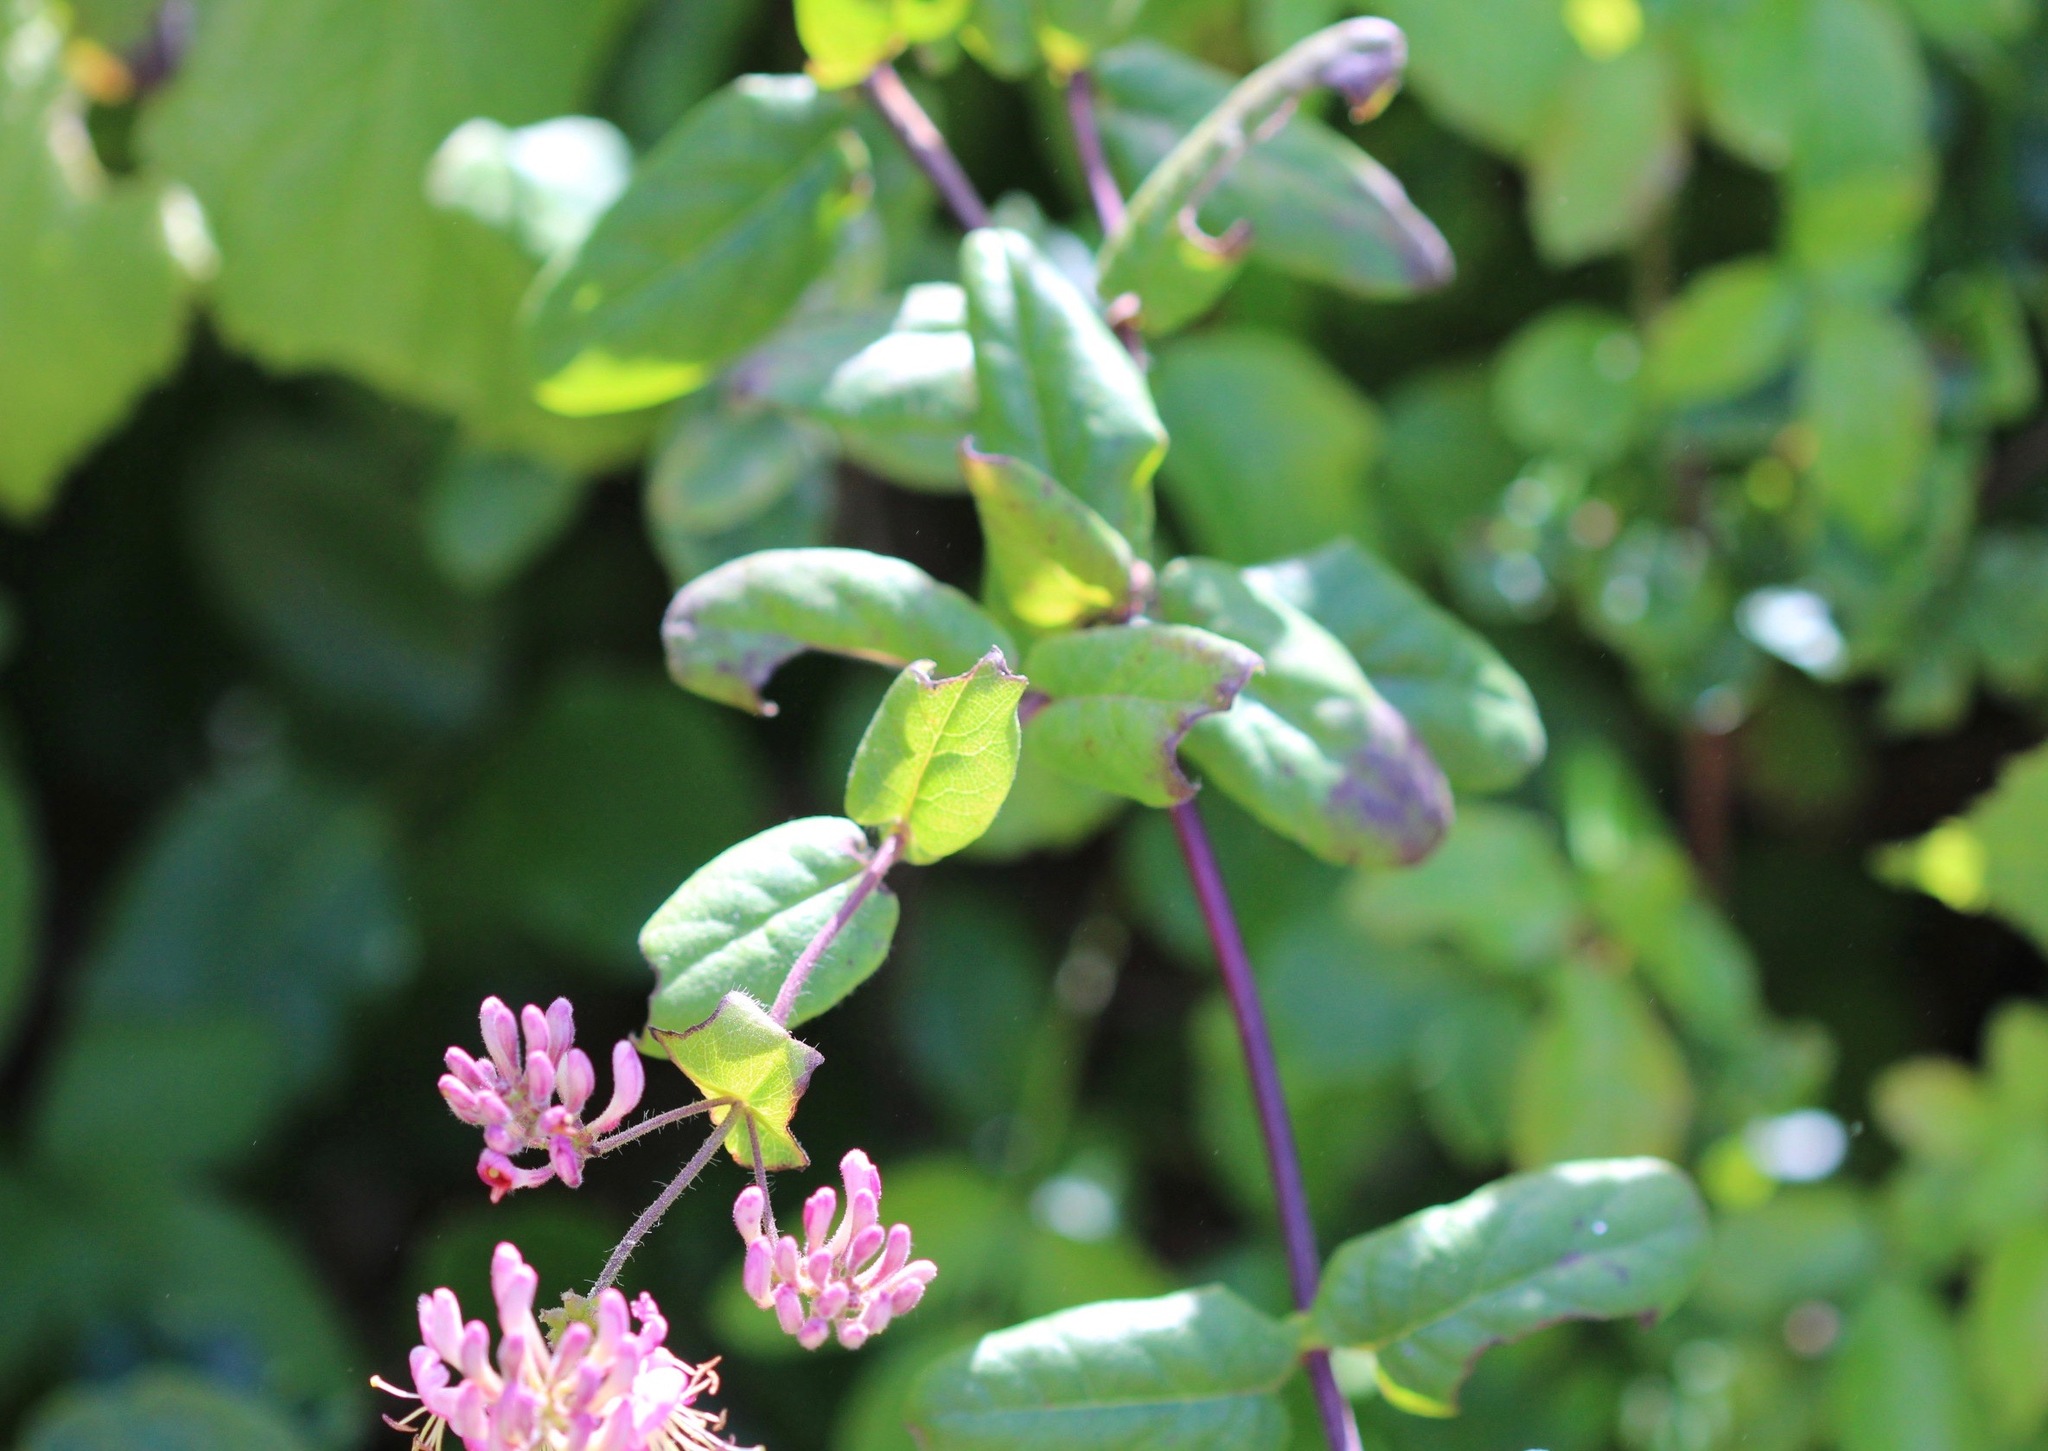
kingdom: Plantae
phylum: Tracheophyta
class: Magnoliopsida
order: Dipsacales
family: Caprifoliaceae
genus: Lonicera
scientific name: Lonicera hispidula
